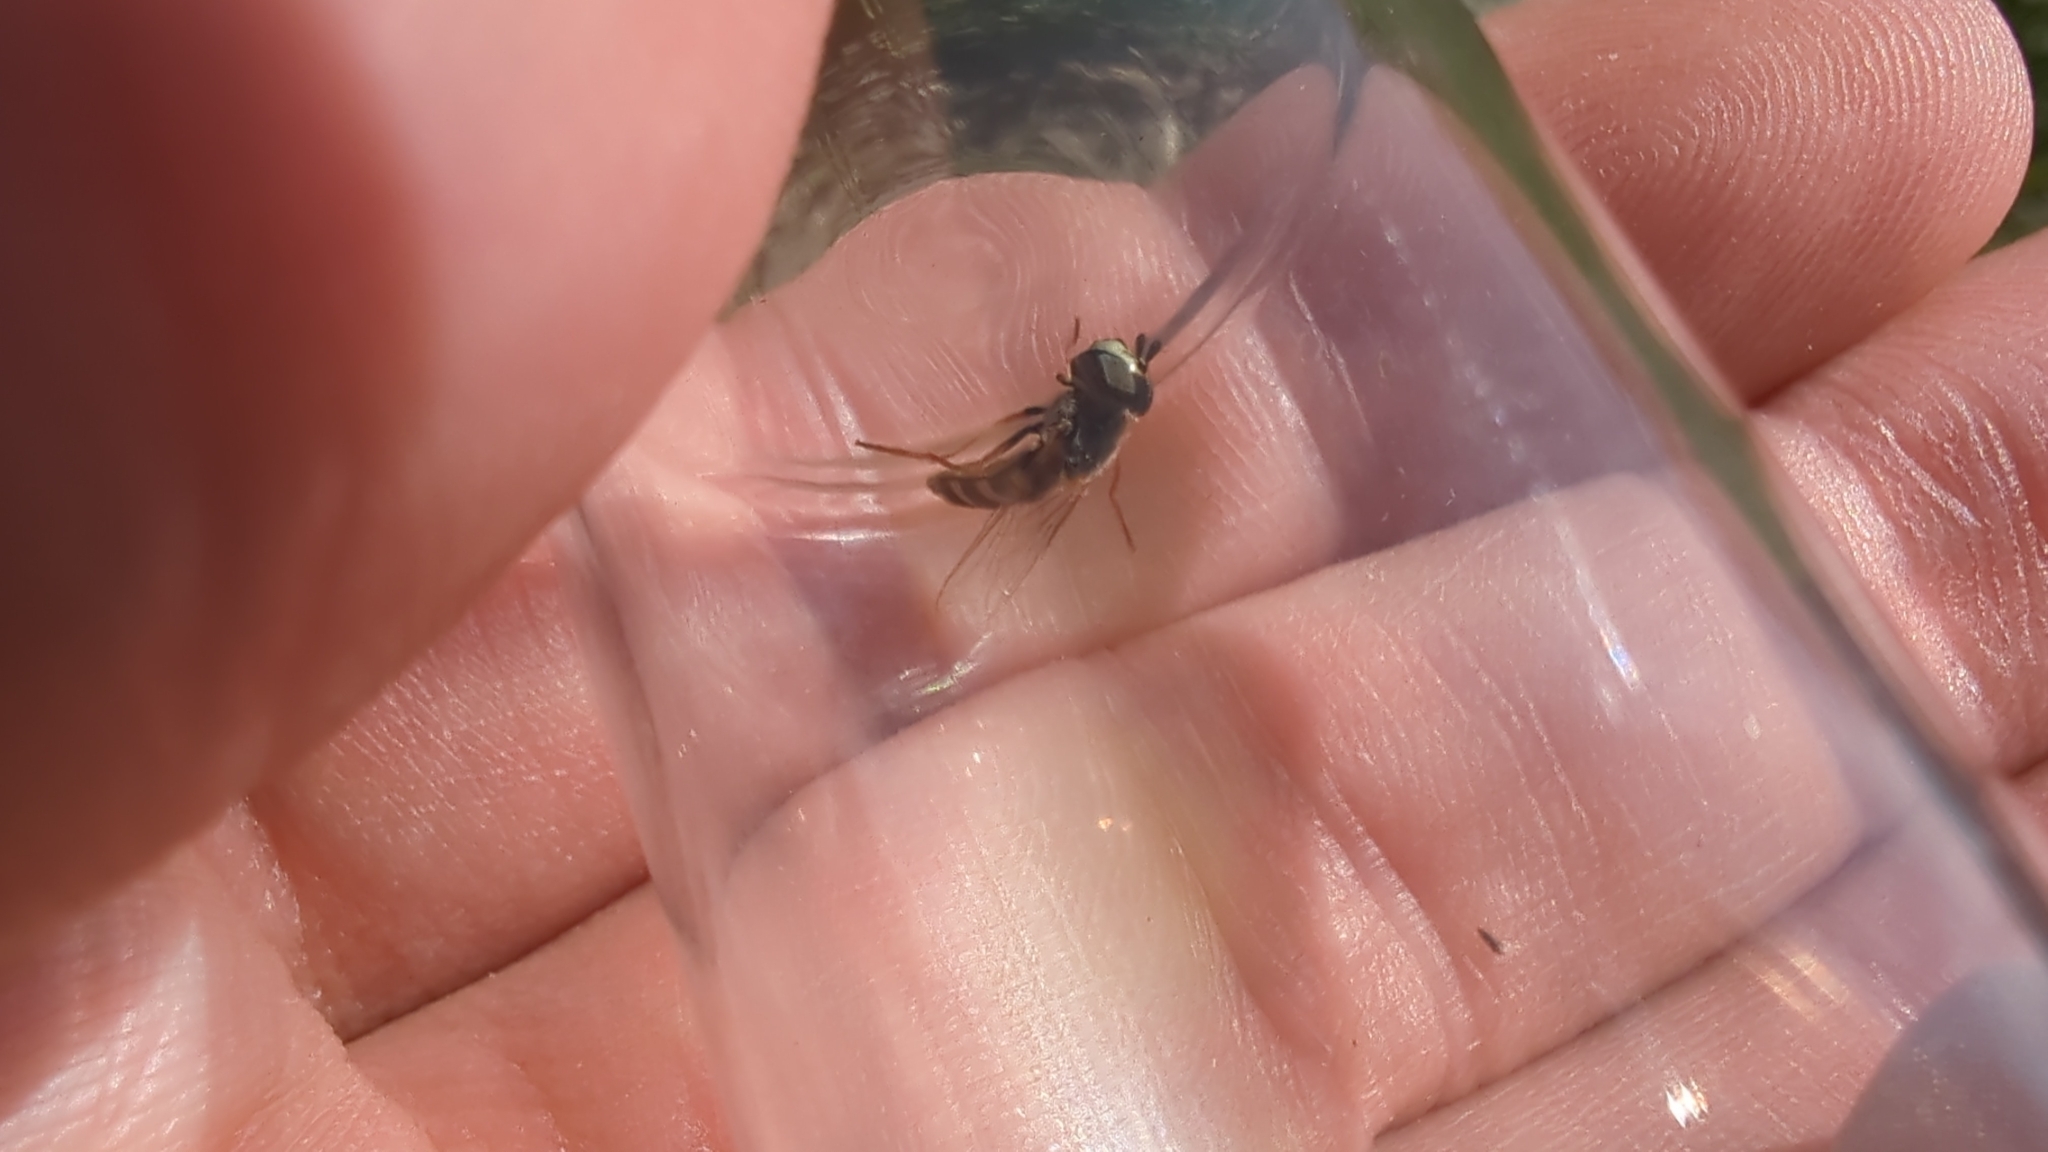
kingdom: Animalia
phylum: Arthropoda
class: Insecta
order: Diptera
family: Syrphidae
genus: Eupeodes
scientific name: Eupeodes volucris
